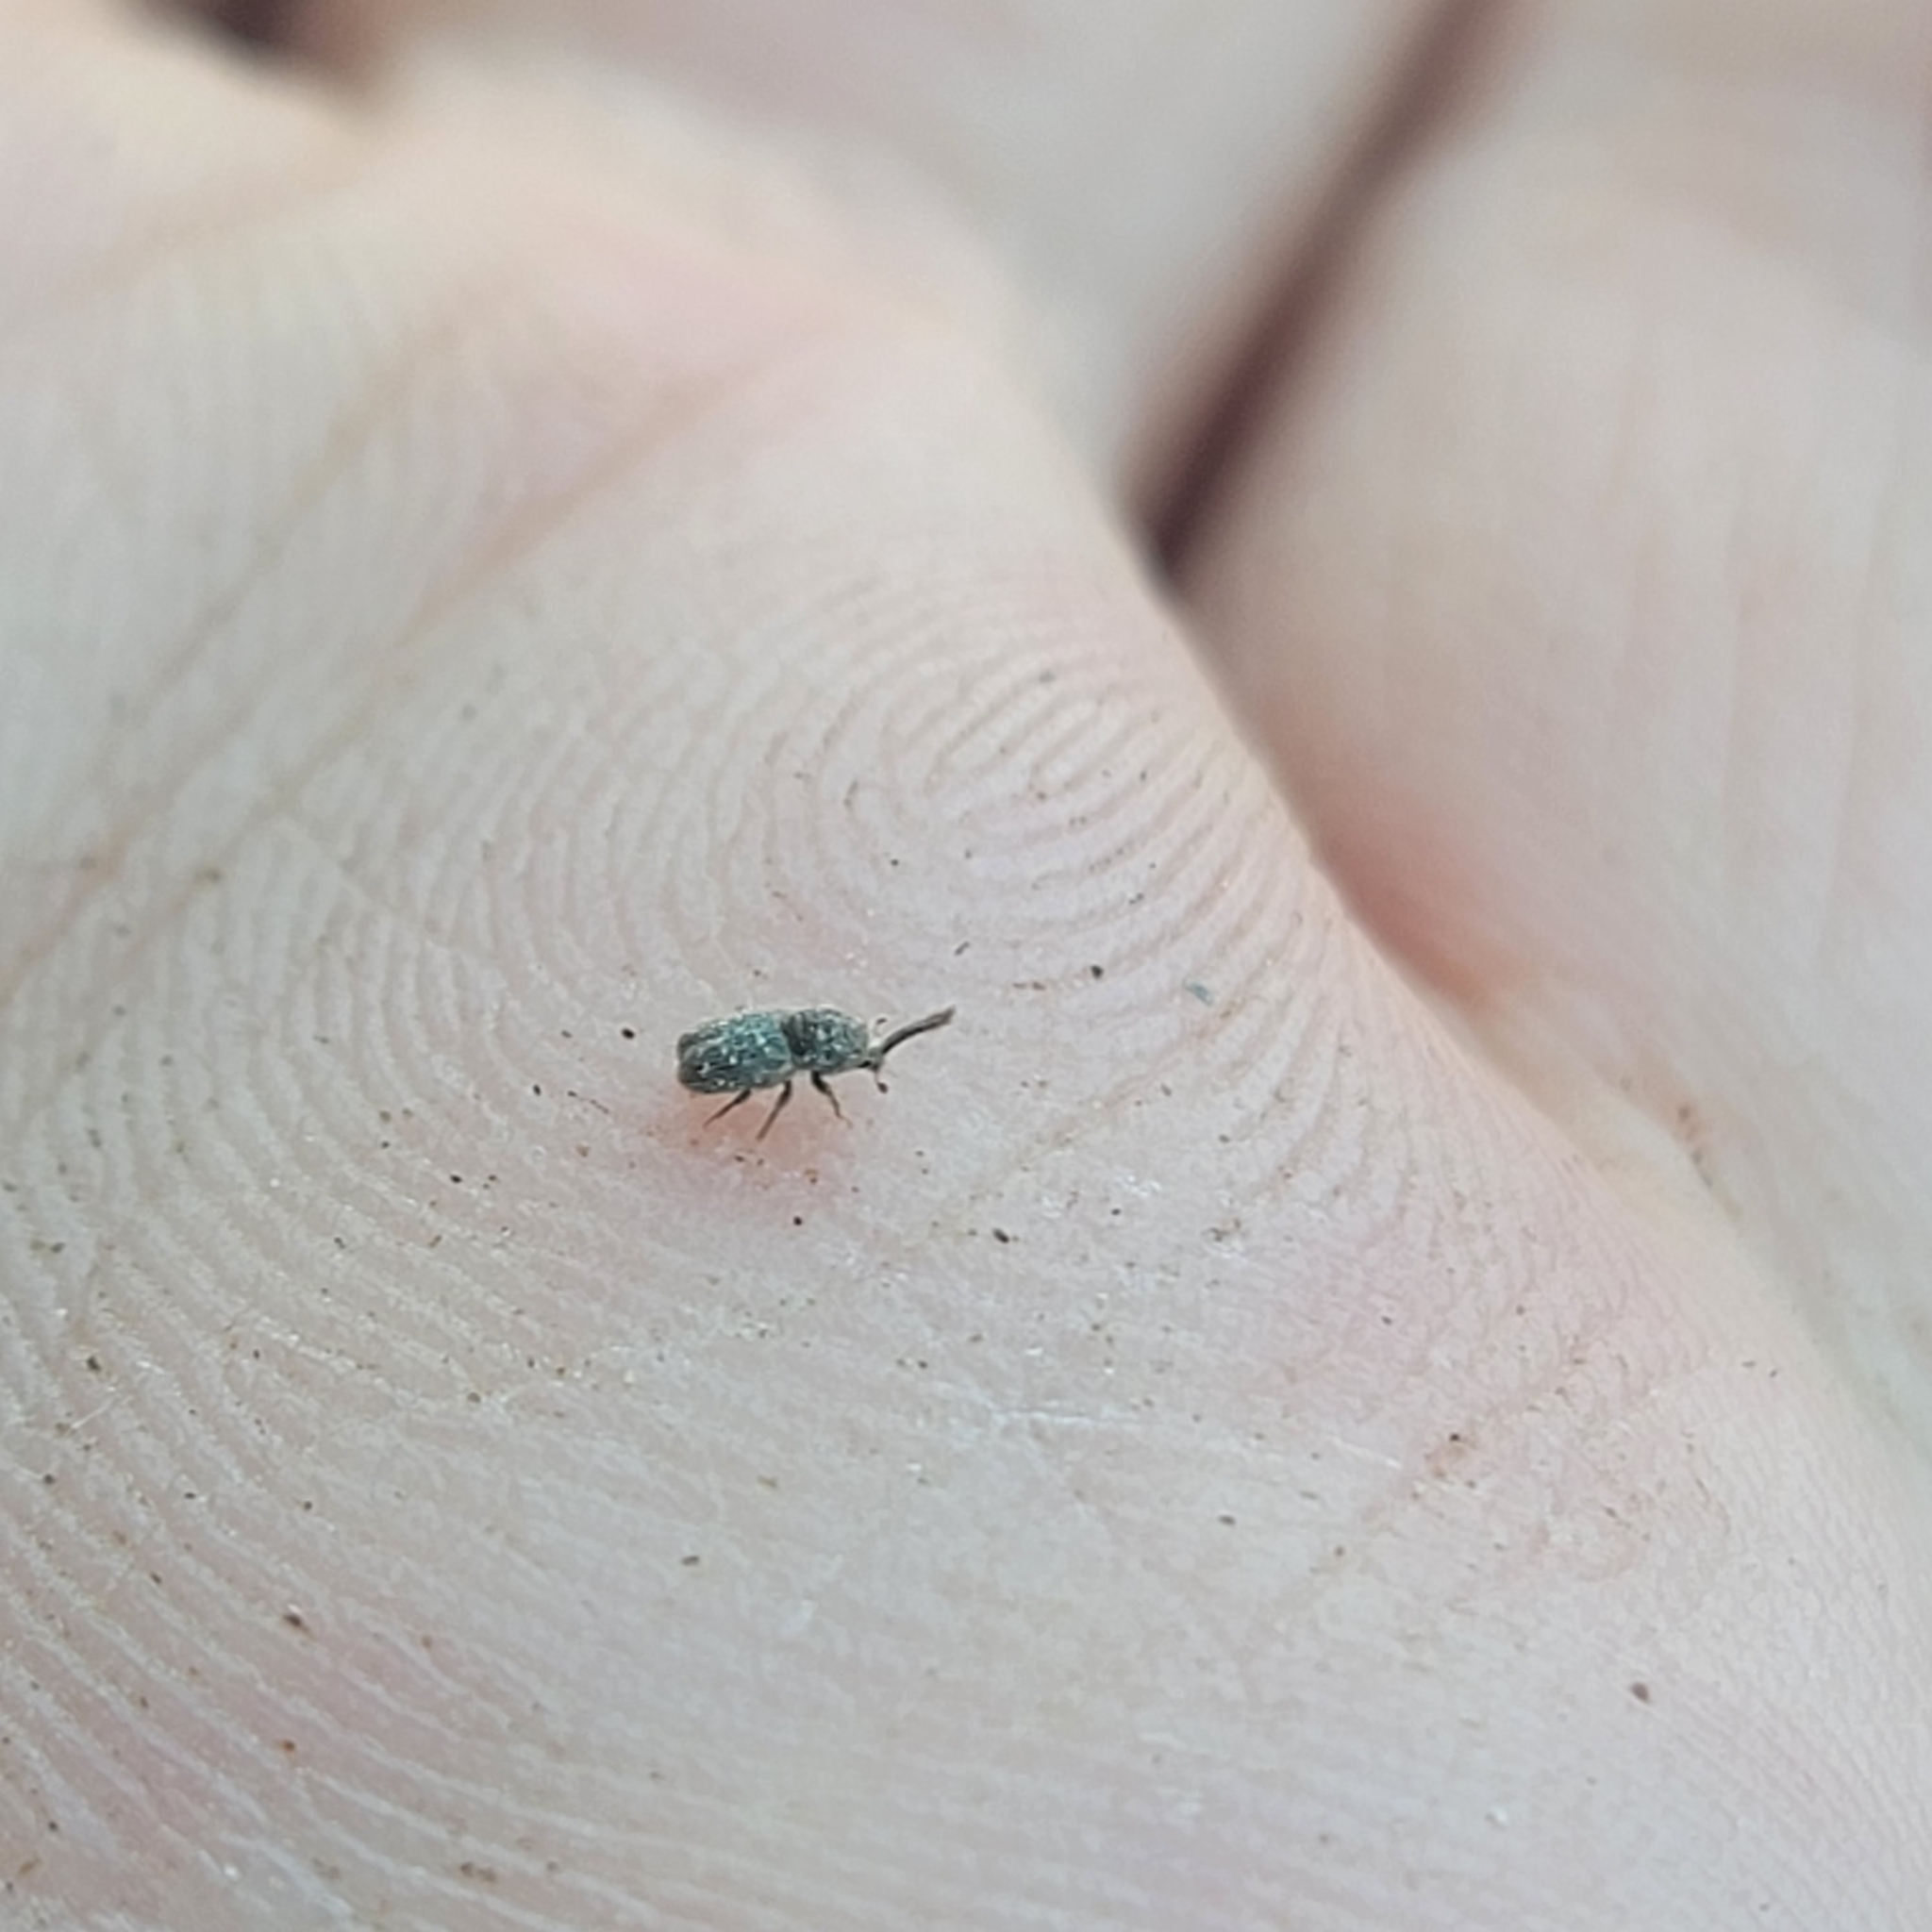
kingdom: Animalia
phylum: Arthropoda
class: Insecta
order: Coleoptera
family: Curculionidae
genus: Cactopinus
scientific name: Cactopinus hubbardi
